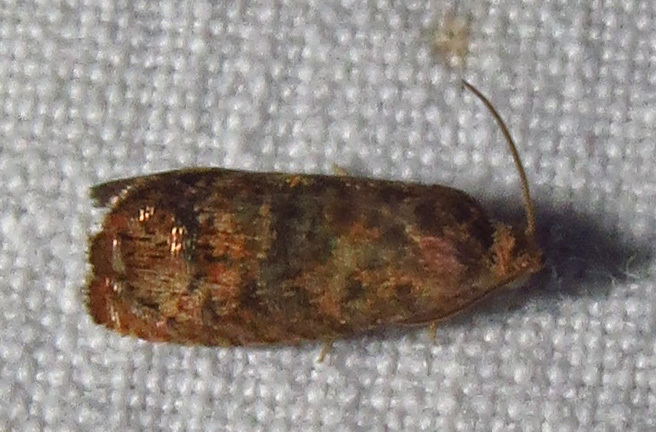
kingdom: Animalia
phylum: Arthropoda
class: Insecta
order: Lepidoptera
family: Tortricidae
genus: Cydia
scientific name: Cydia latiferreana
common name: Filbertworm moth
